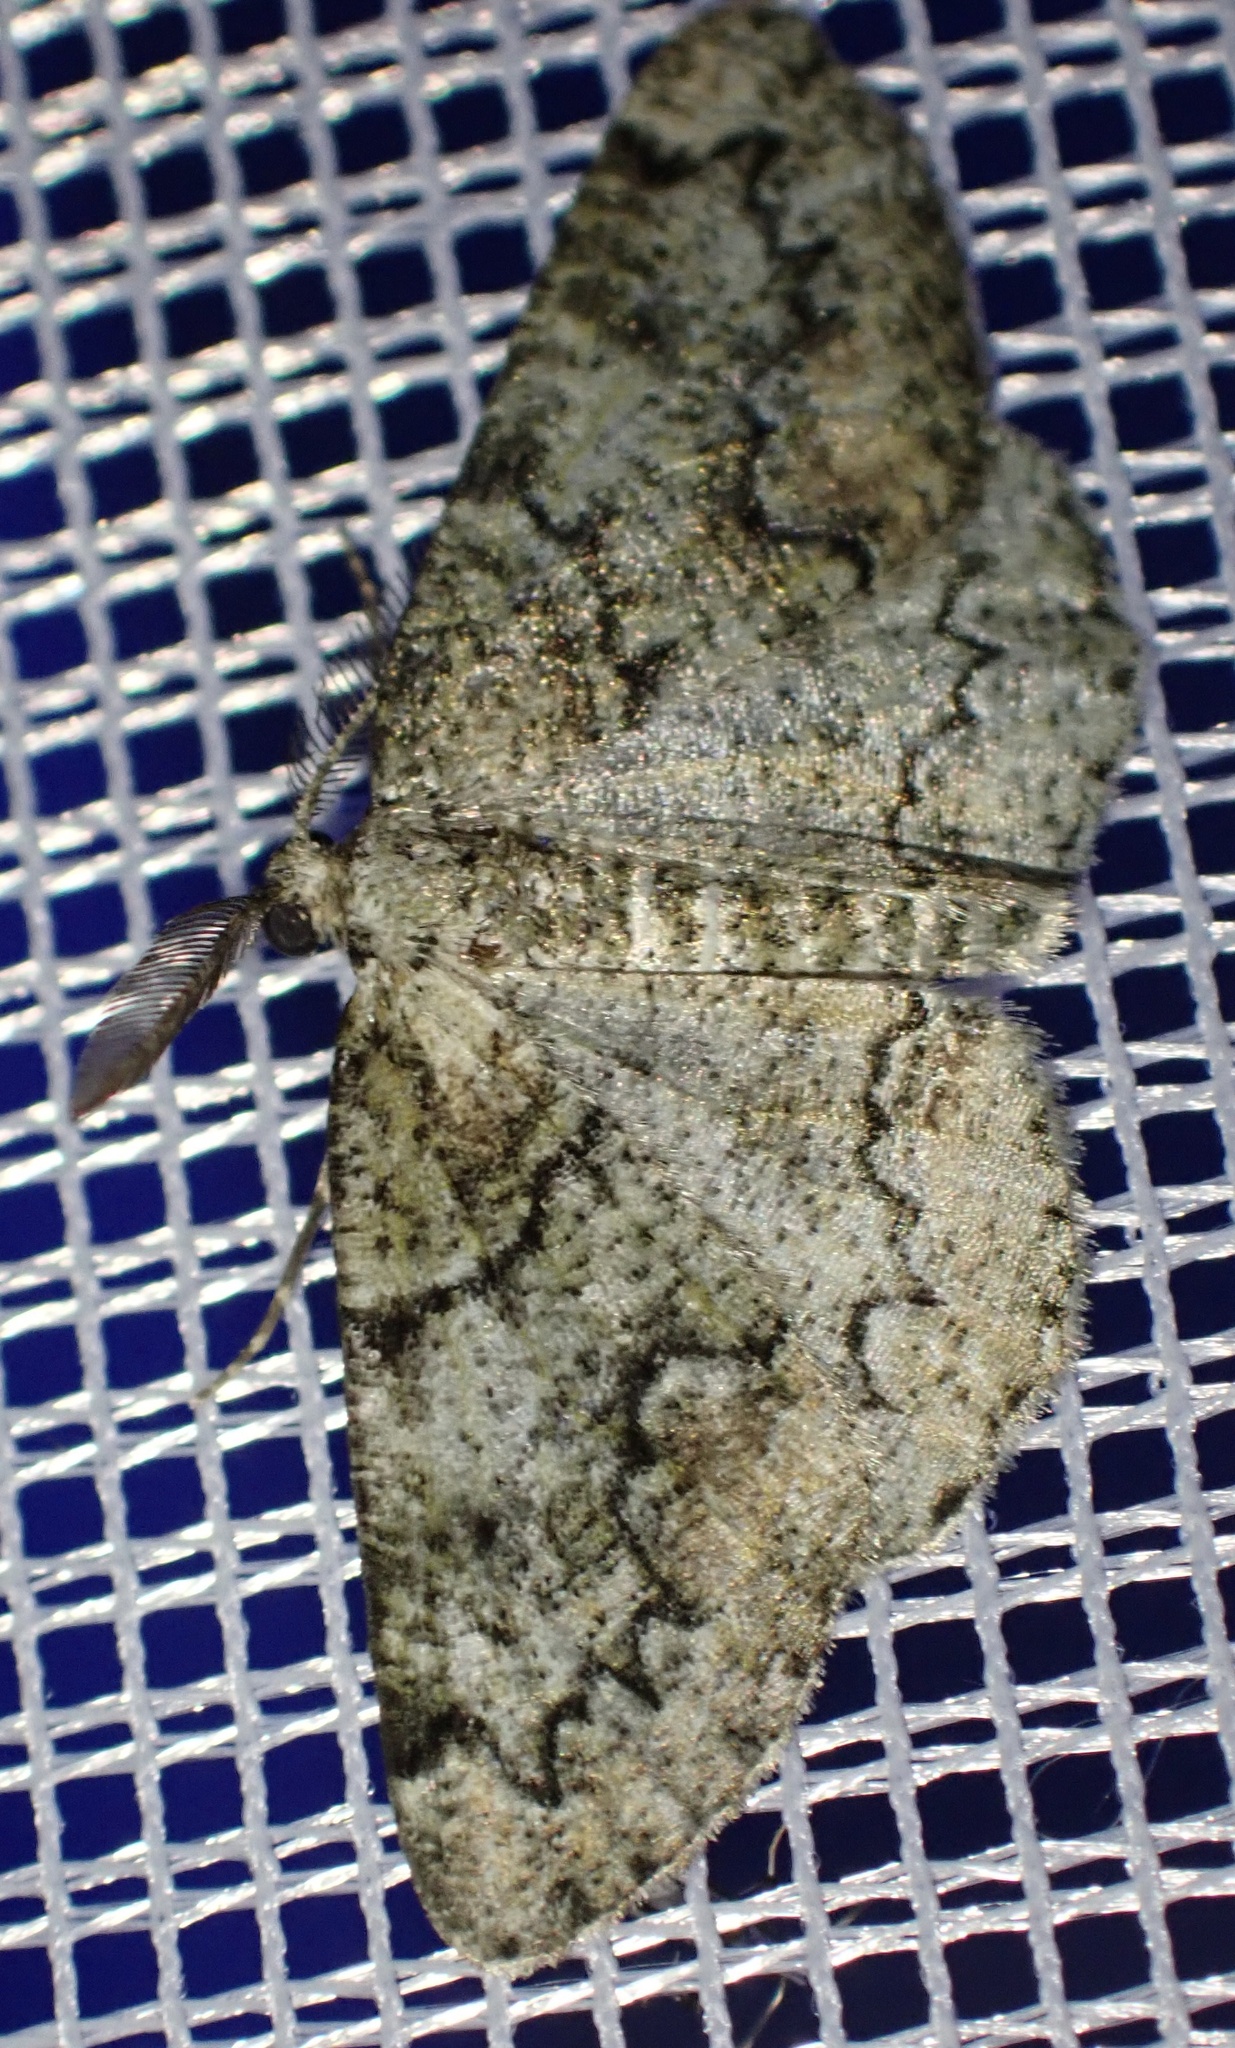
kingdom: Animalia
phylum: Arthropoda
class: Insecta
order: Lepidoptera
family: Geometridae
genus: Cleorodes
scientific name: Cleorodes lichenaria
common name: Brussels lace
